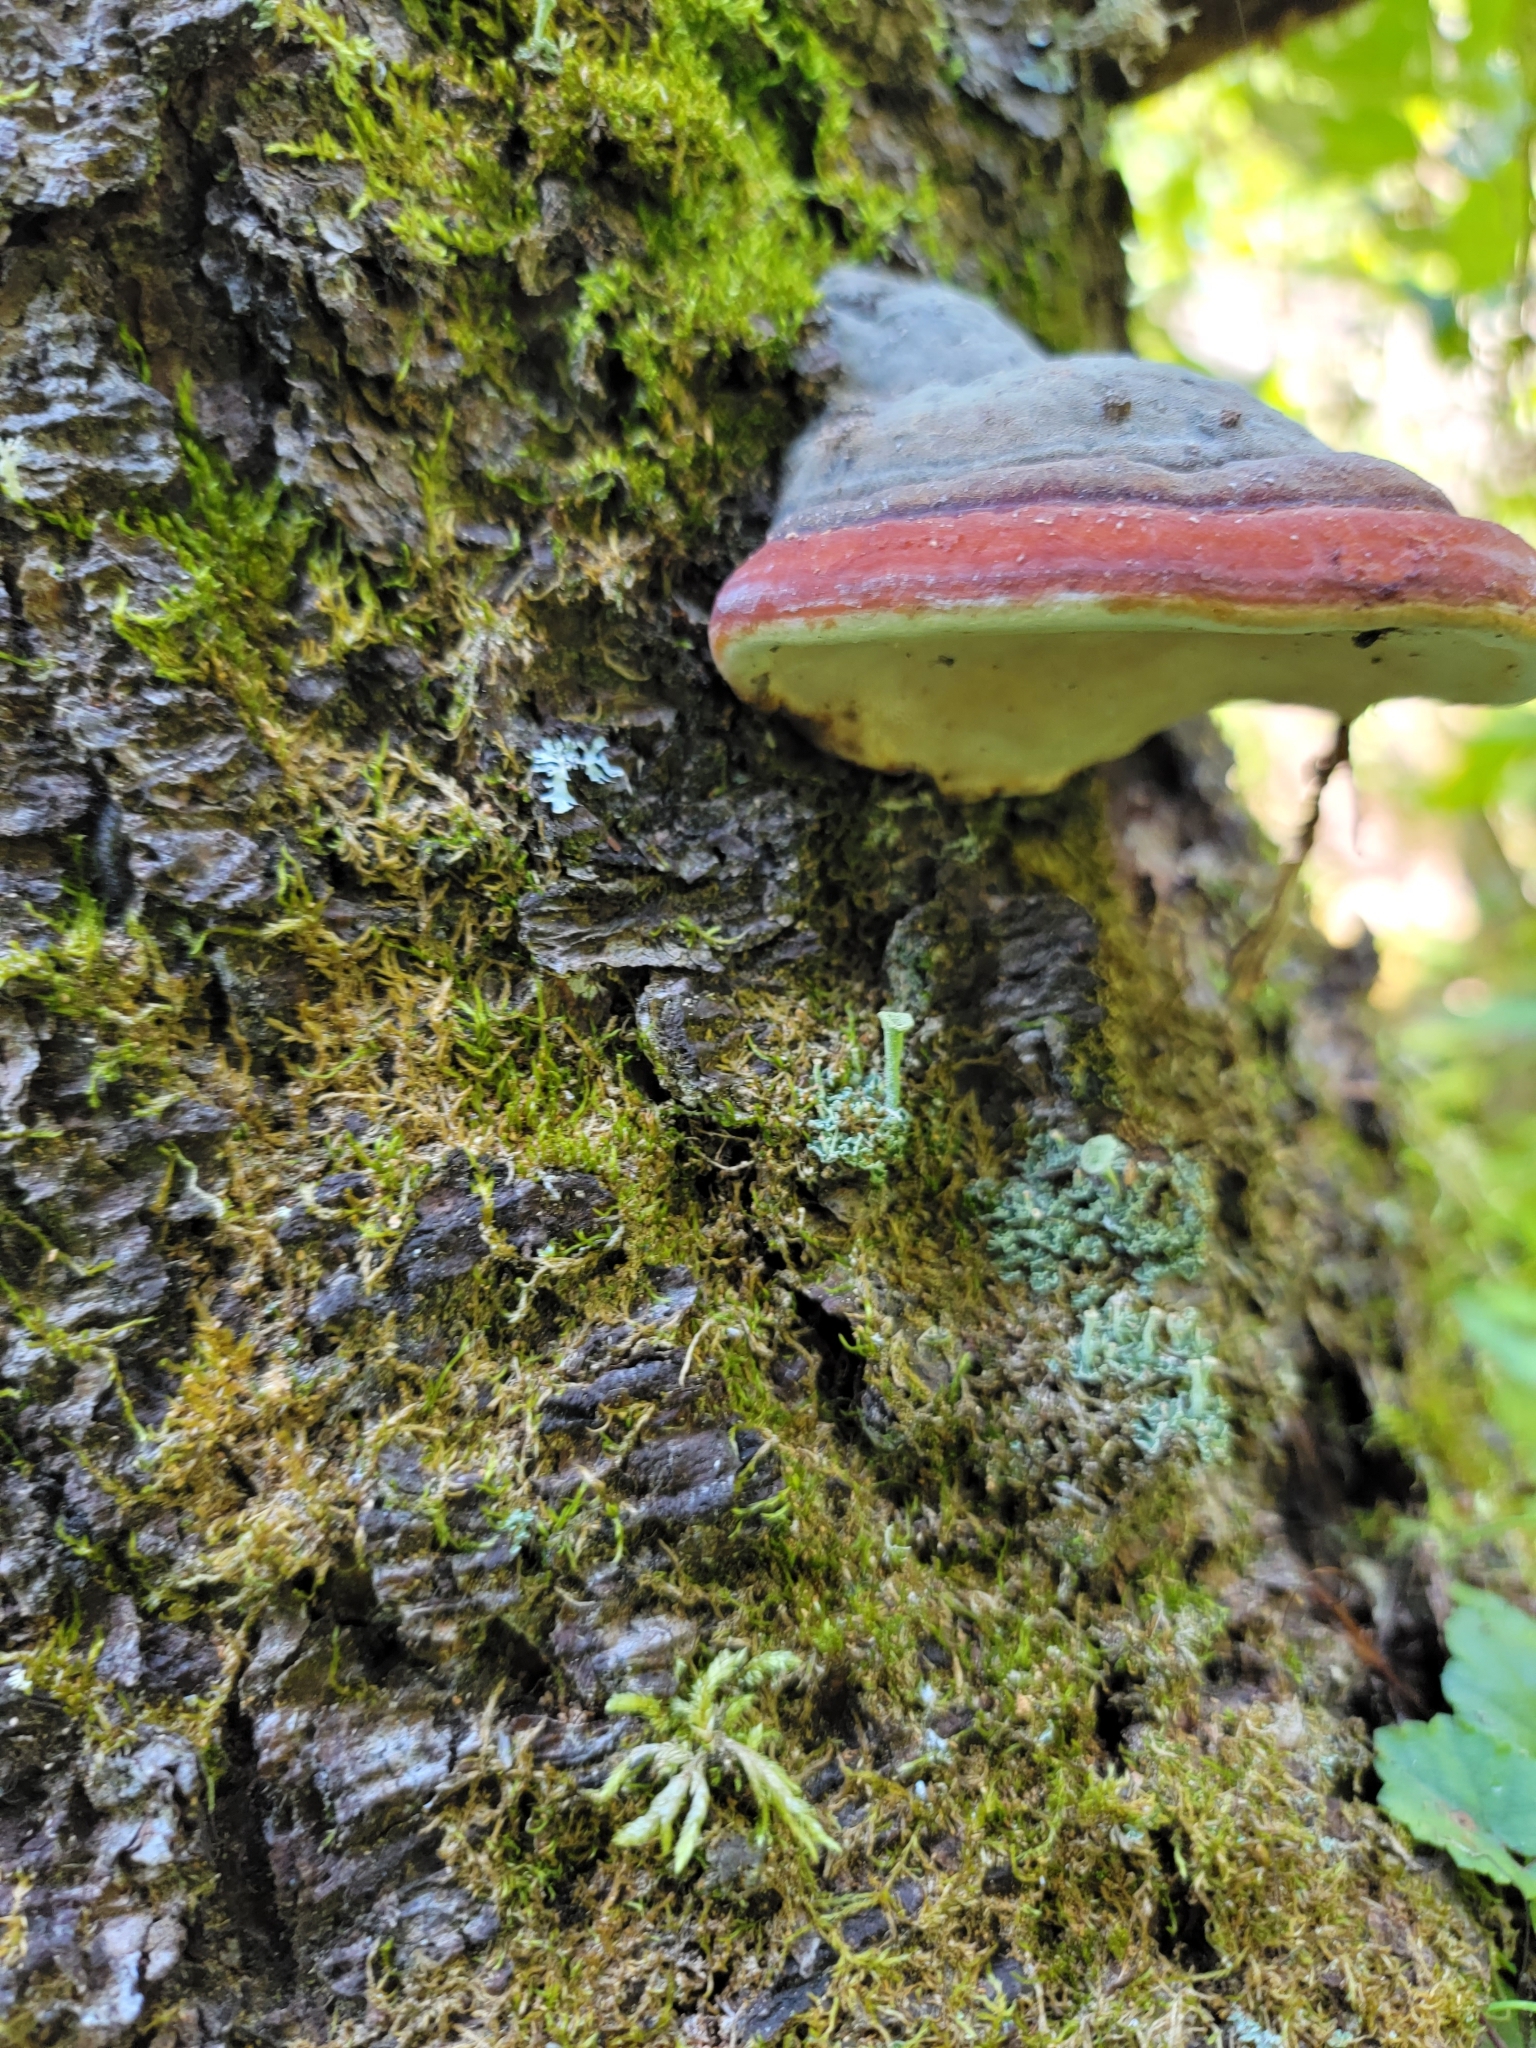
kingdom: Fungi
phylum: Basidiomycota
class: Agaricomycetes
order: Polyporales
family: Fomitopsidaceae
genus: Fomitopsis
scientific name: Fomitopsis mounceae
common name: Northern red belt
